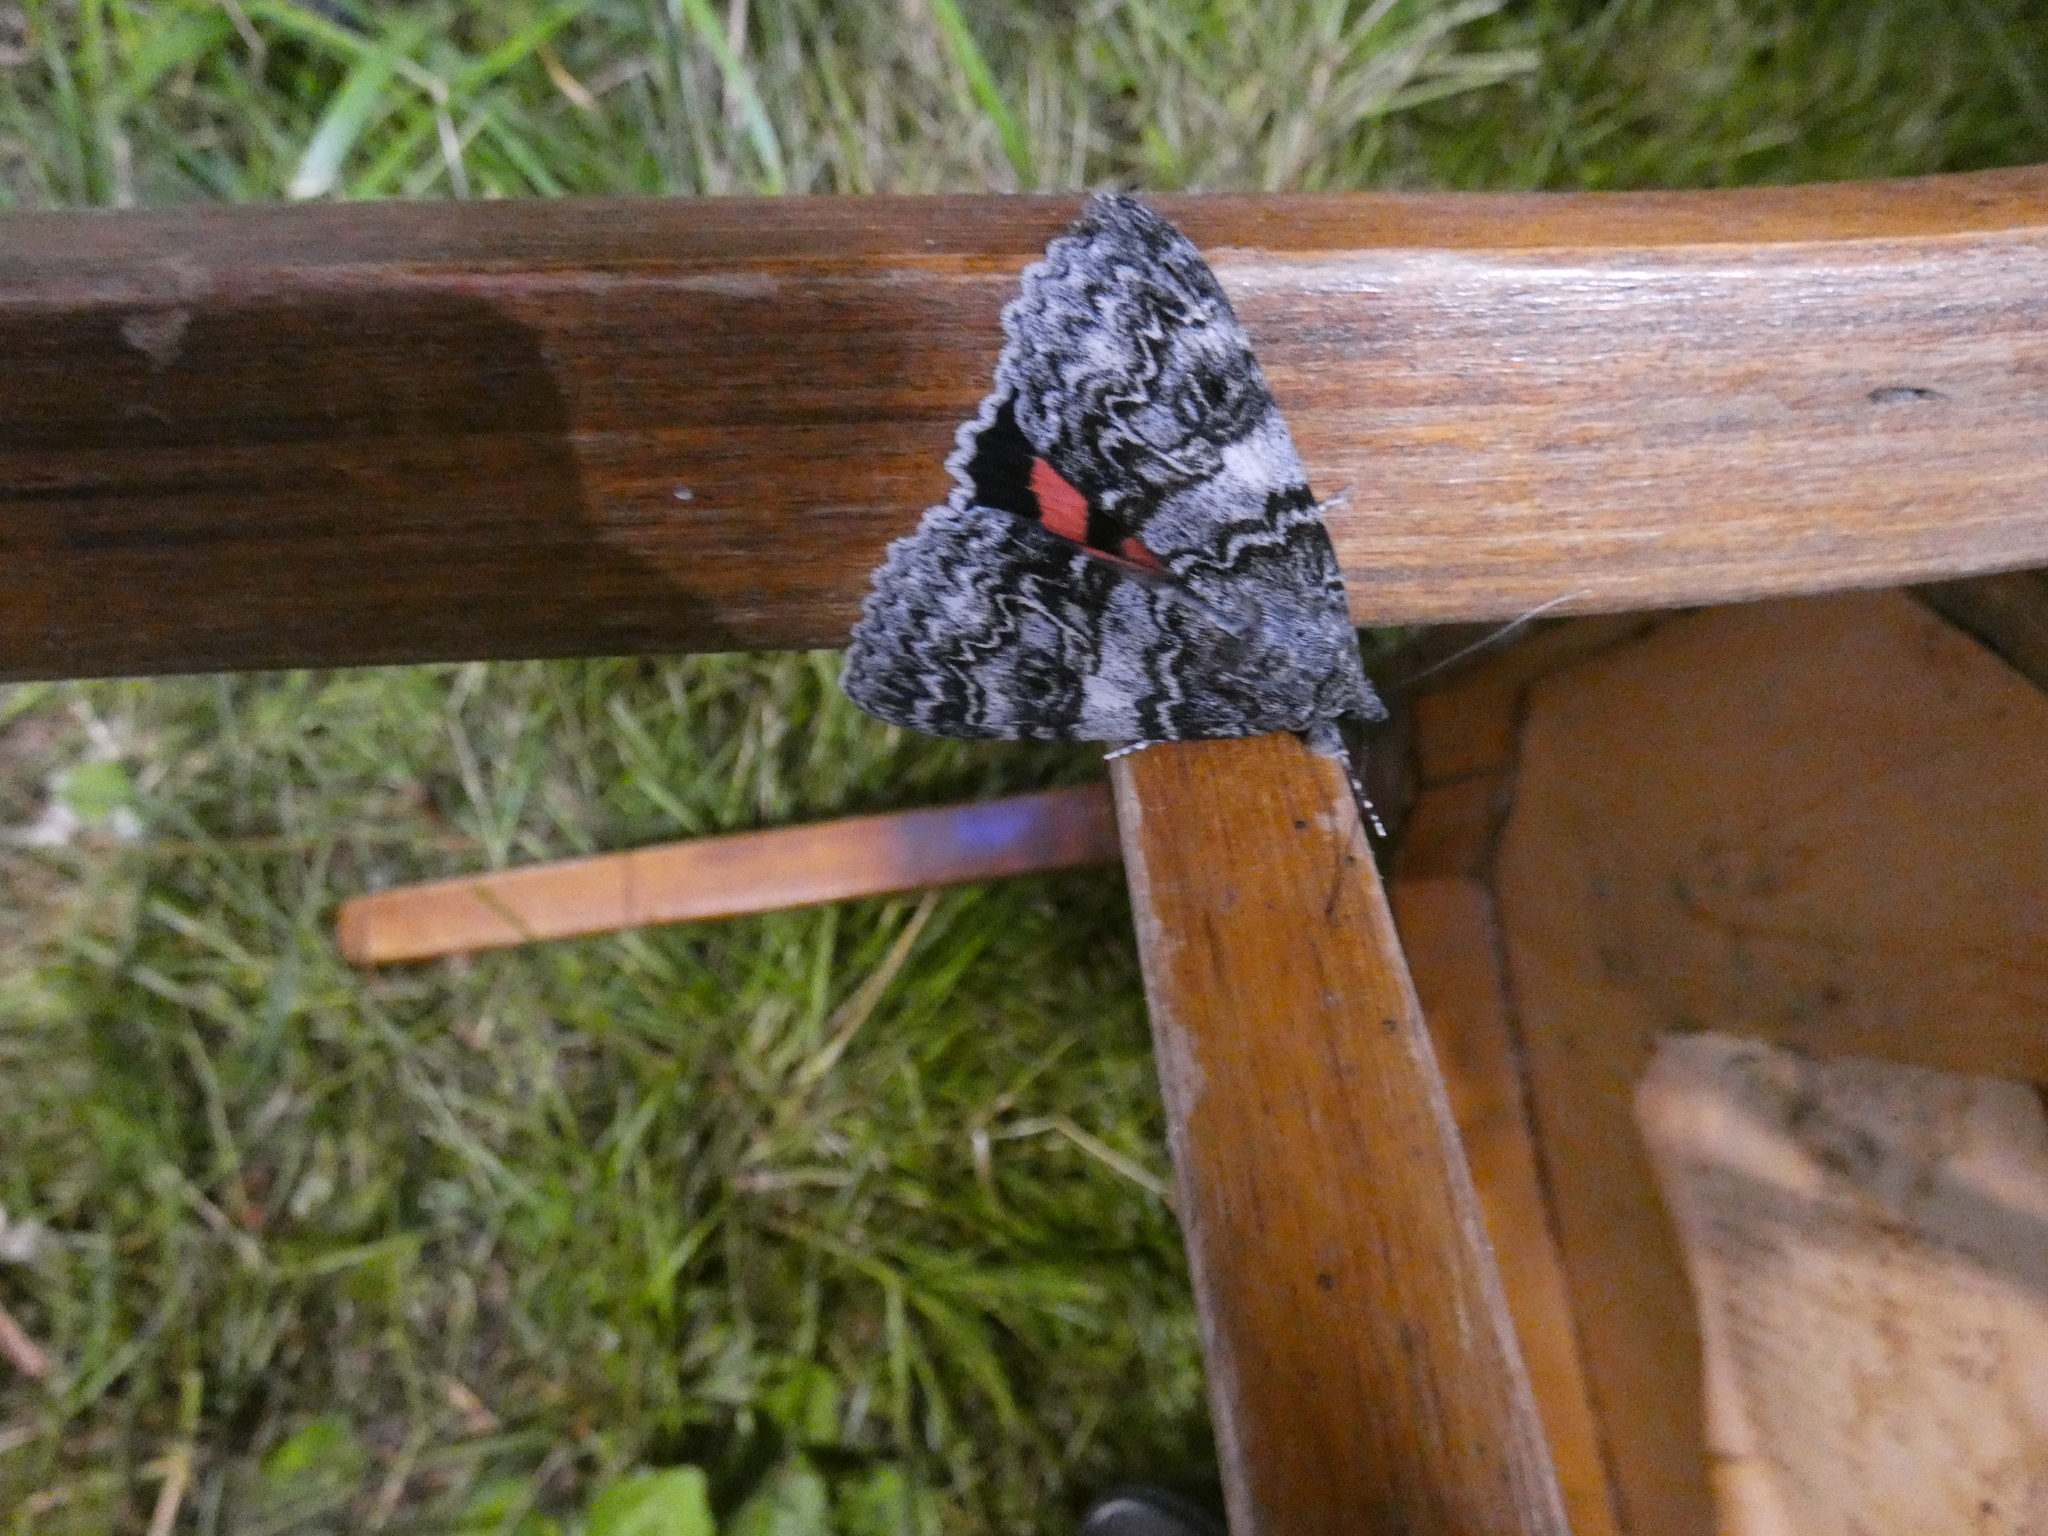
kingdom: Animalia
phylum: Arthropoda
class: Insecta
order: Lepidoptera
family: Erebidae
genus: Catocala
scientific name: Catocala adultera
